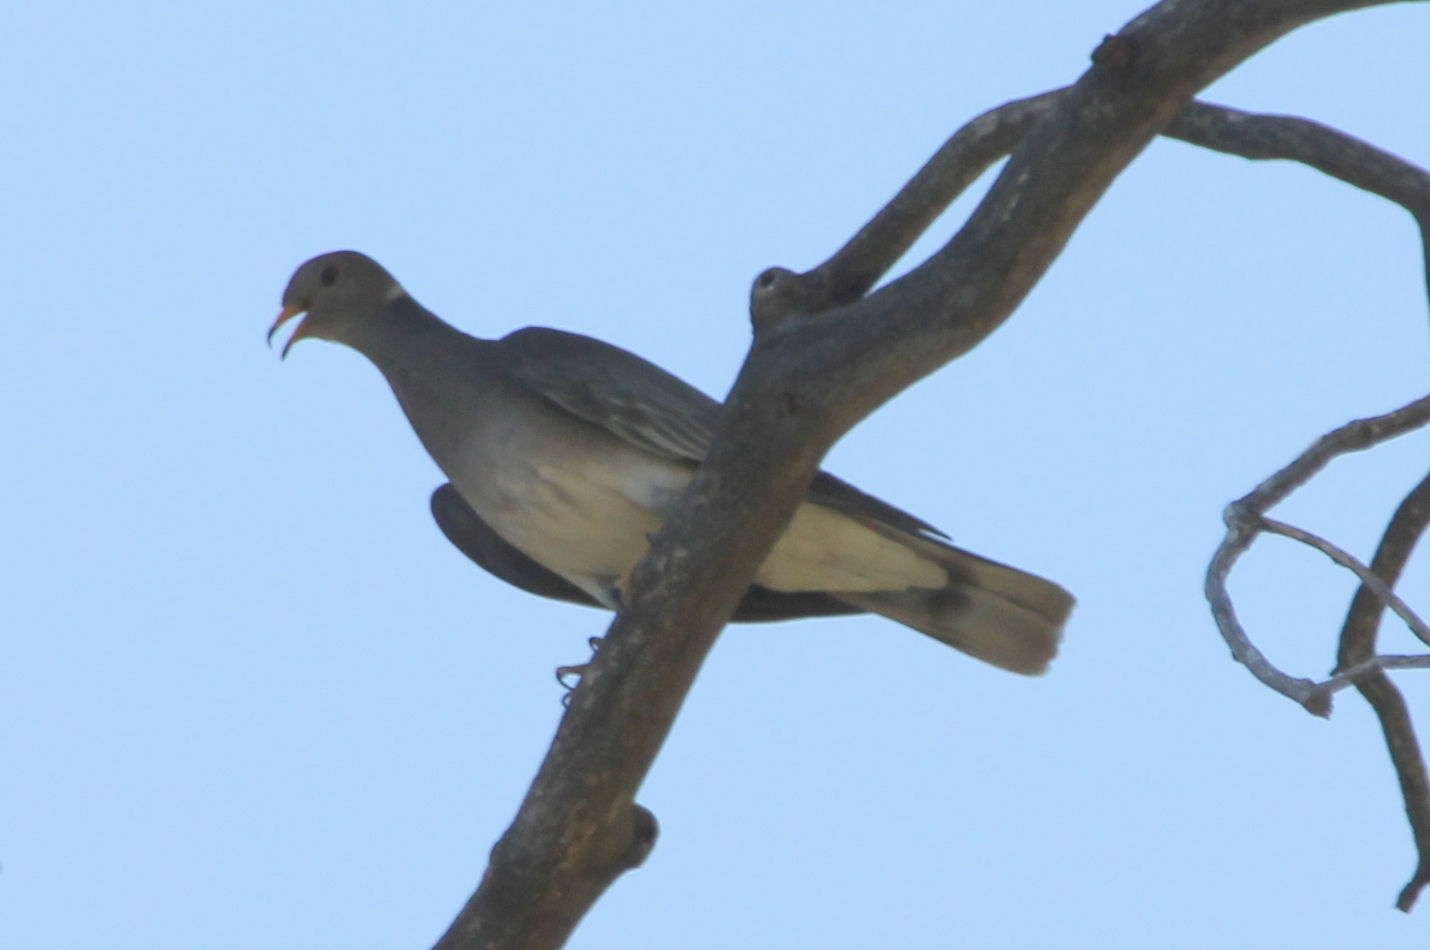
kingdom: Animalia
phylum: Chordata
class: Aves
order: Columbiformes
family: Columbidae
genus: Patagioenas
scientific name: Patagioenas fasciata
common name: Band-tailed pigeon
